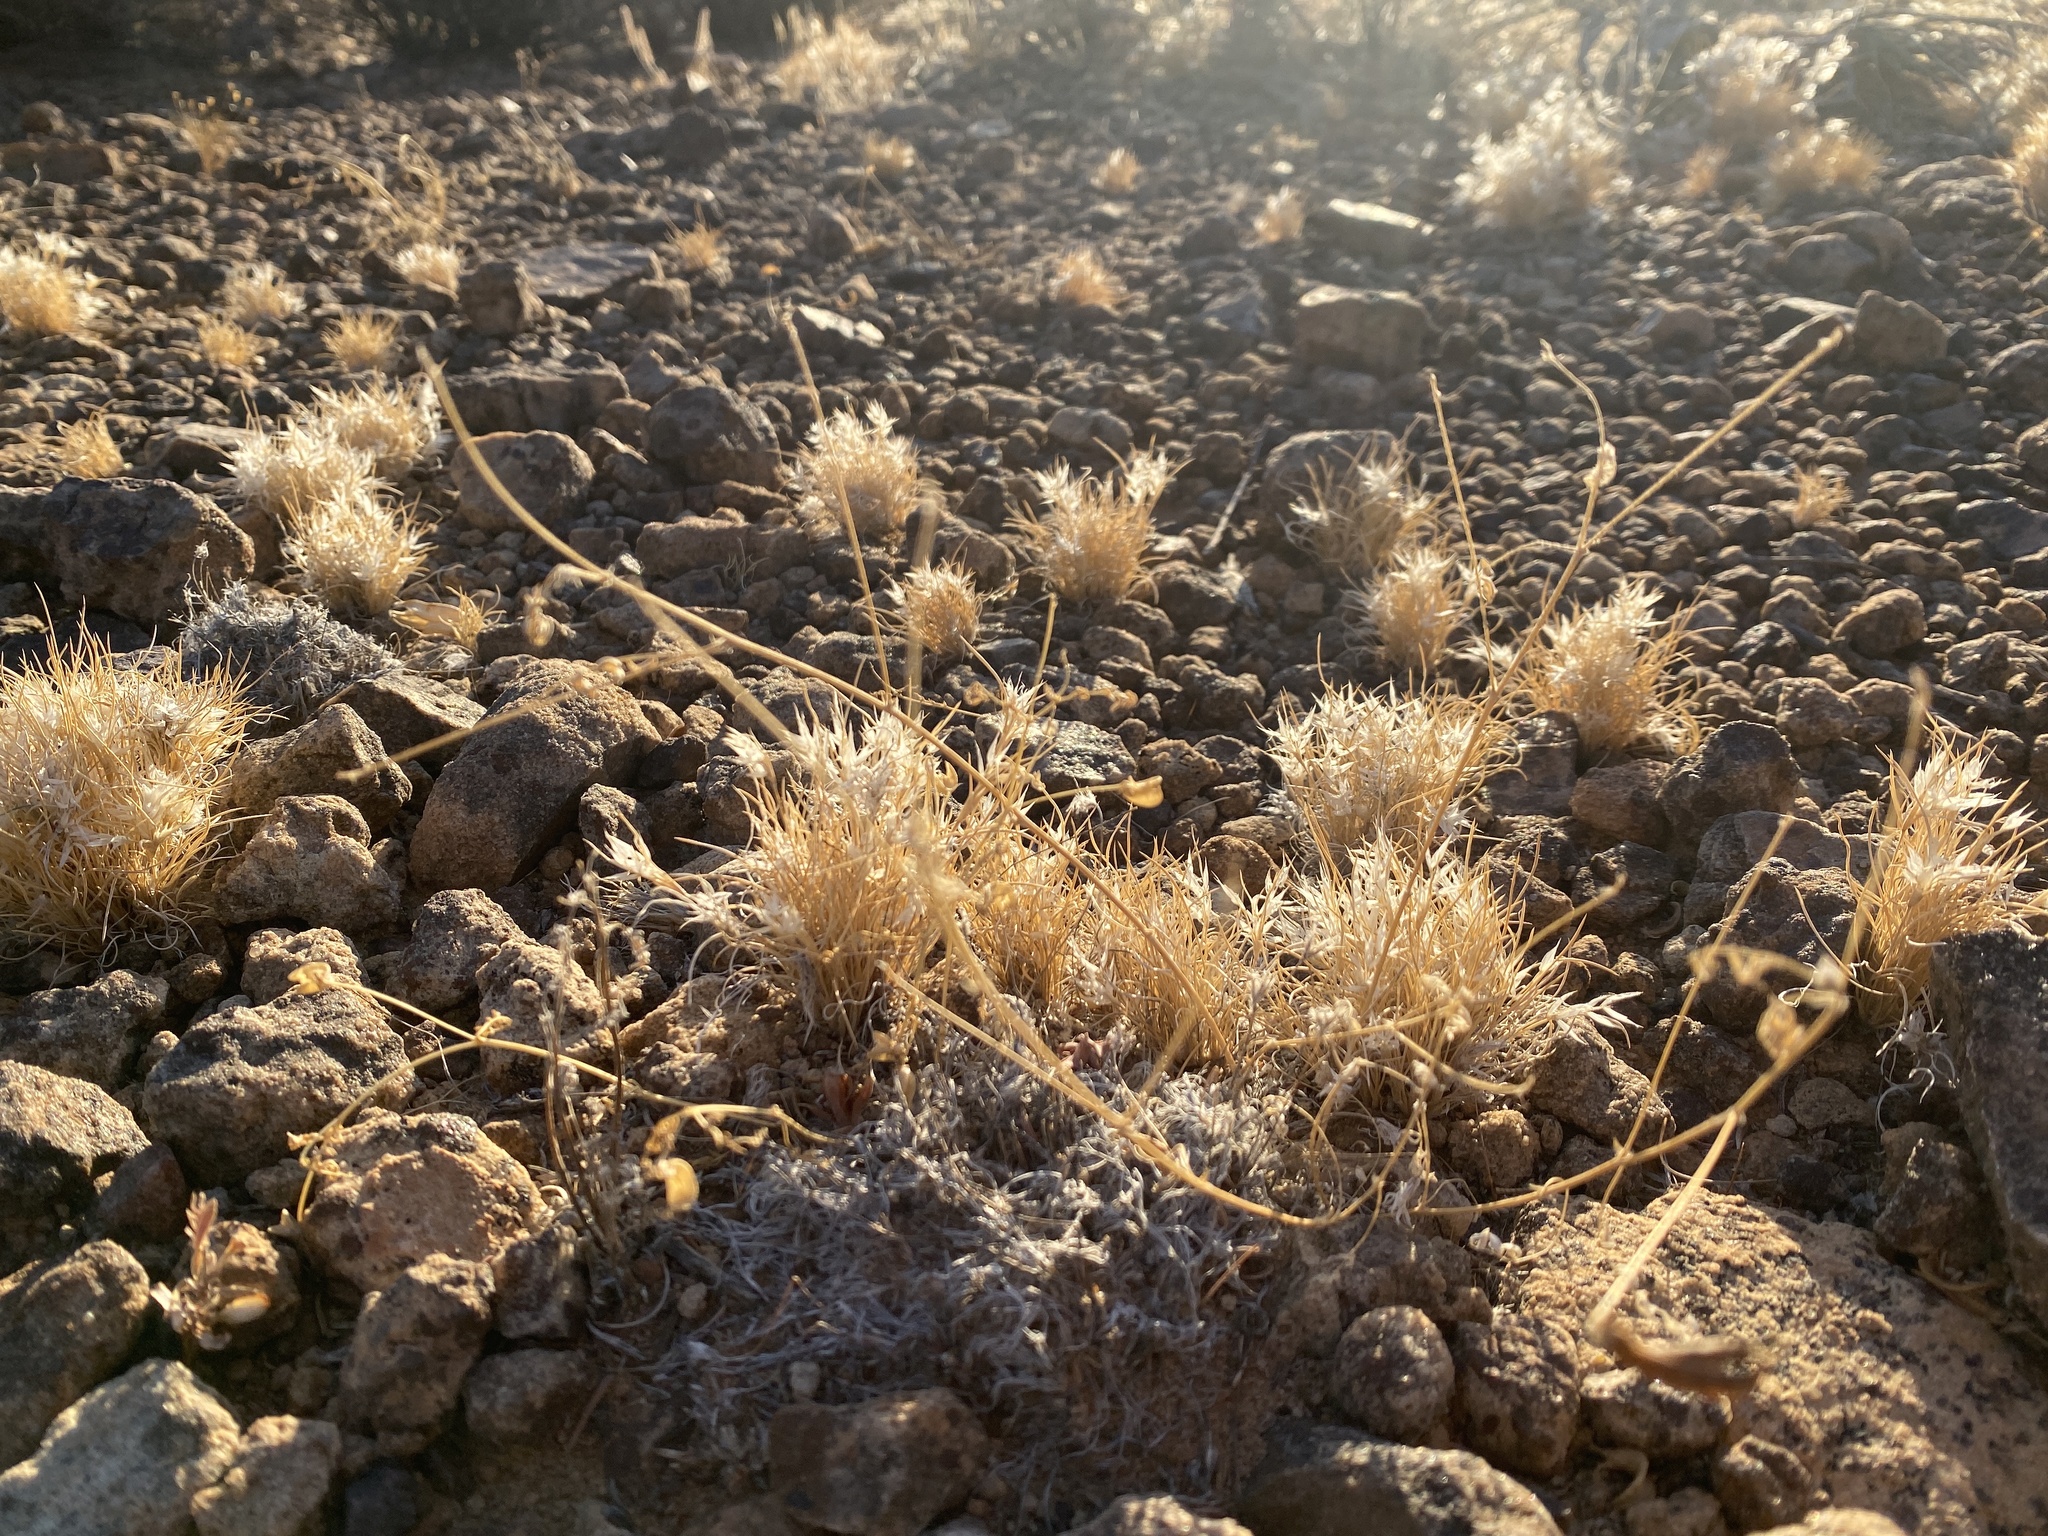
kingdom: Plantae
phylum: Tracheophyta
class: Liliopsida
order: Poales
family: Poaceae
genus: Dasyochloa
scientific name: Dasyochloa pulchella
